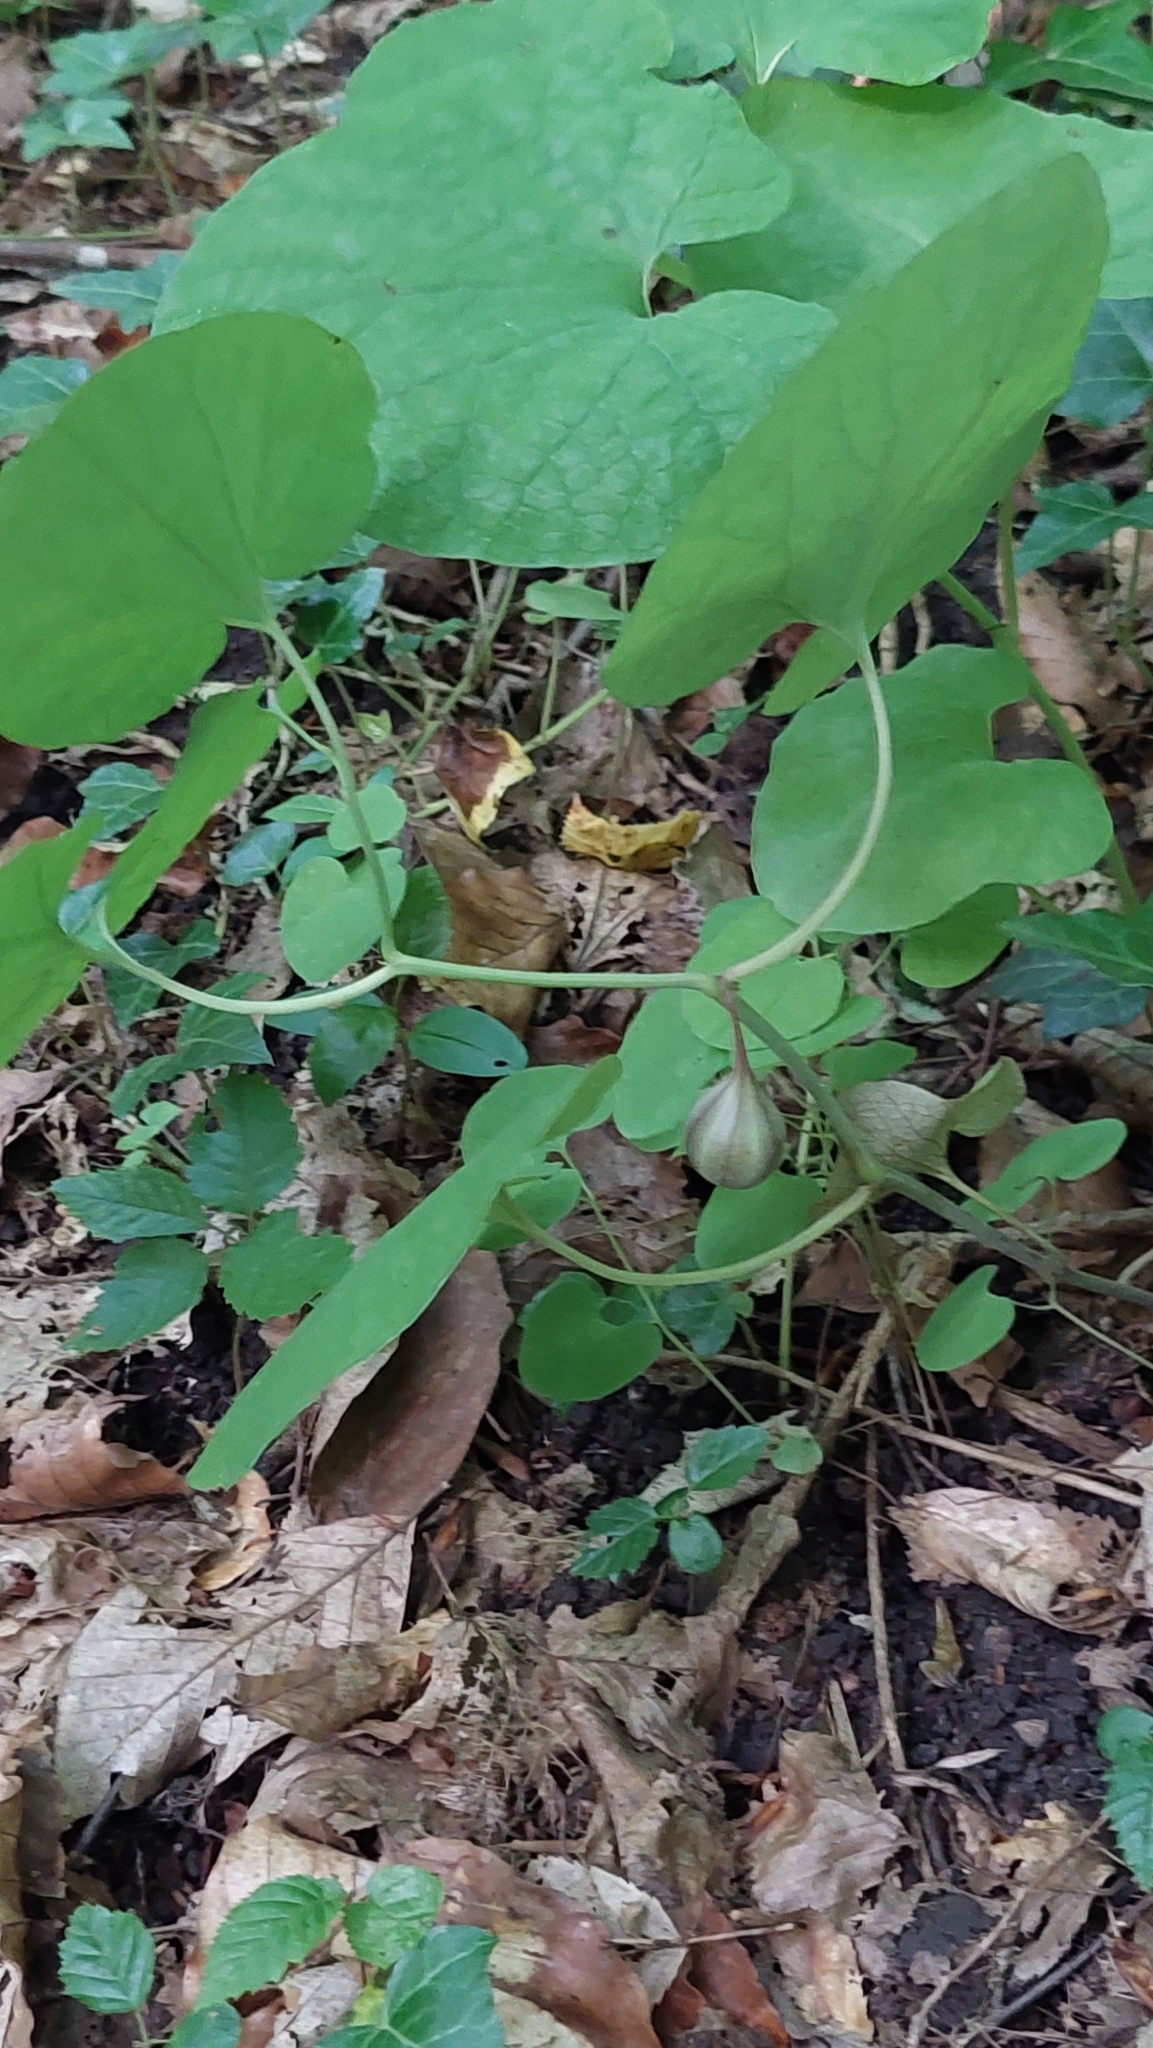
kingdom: Plantae
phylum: Tracheophyta
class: Magnoliopsida
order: Piperales
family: Aristolochiaceae
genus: Aristolochia
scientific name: Aristolochia steupii
